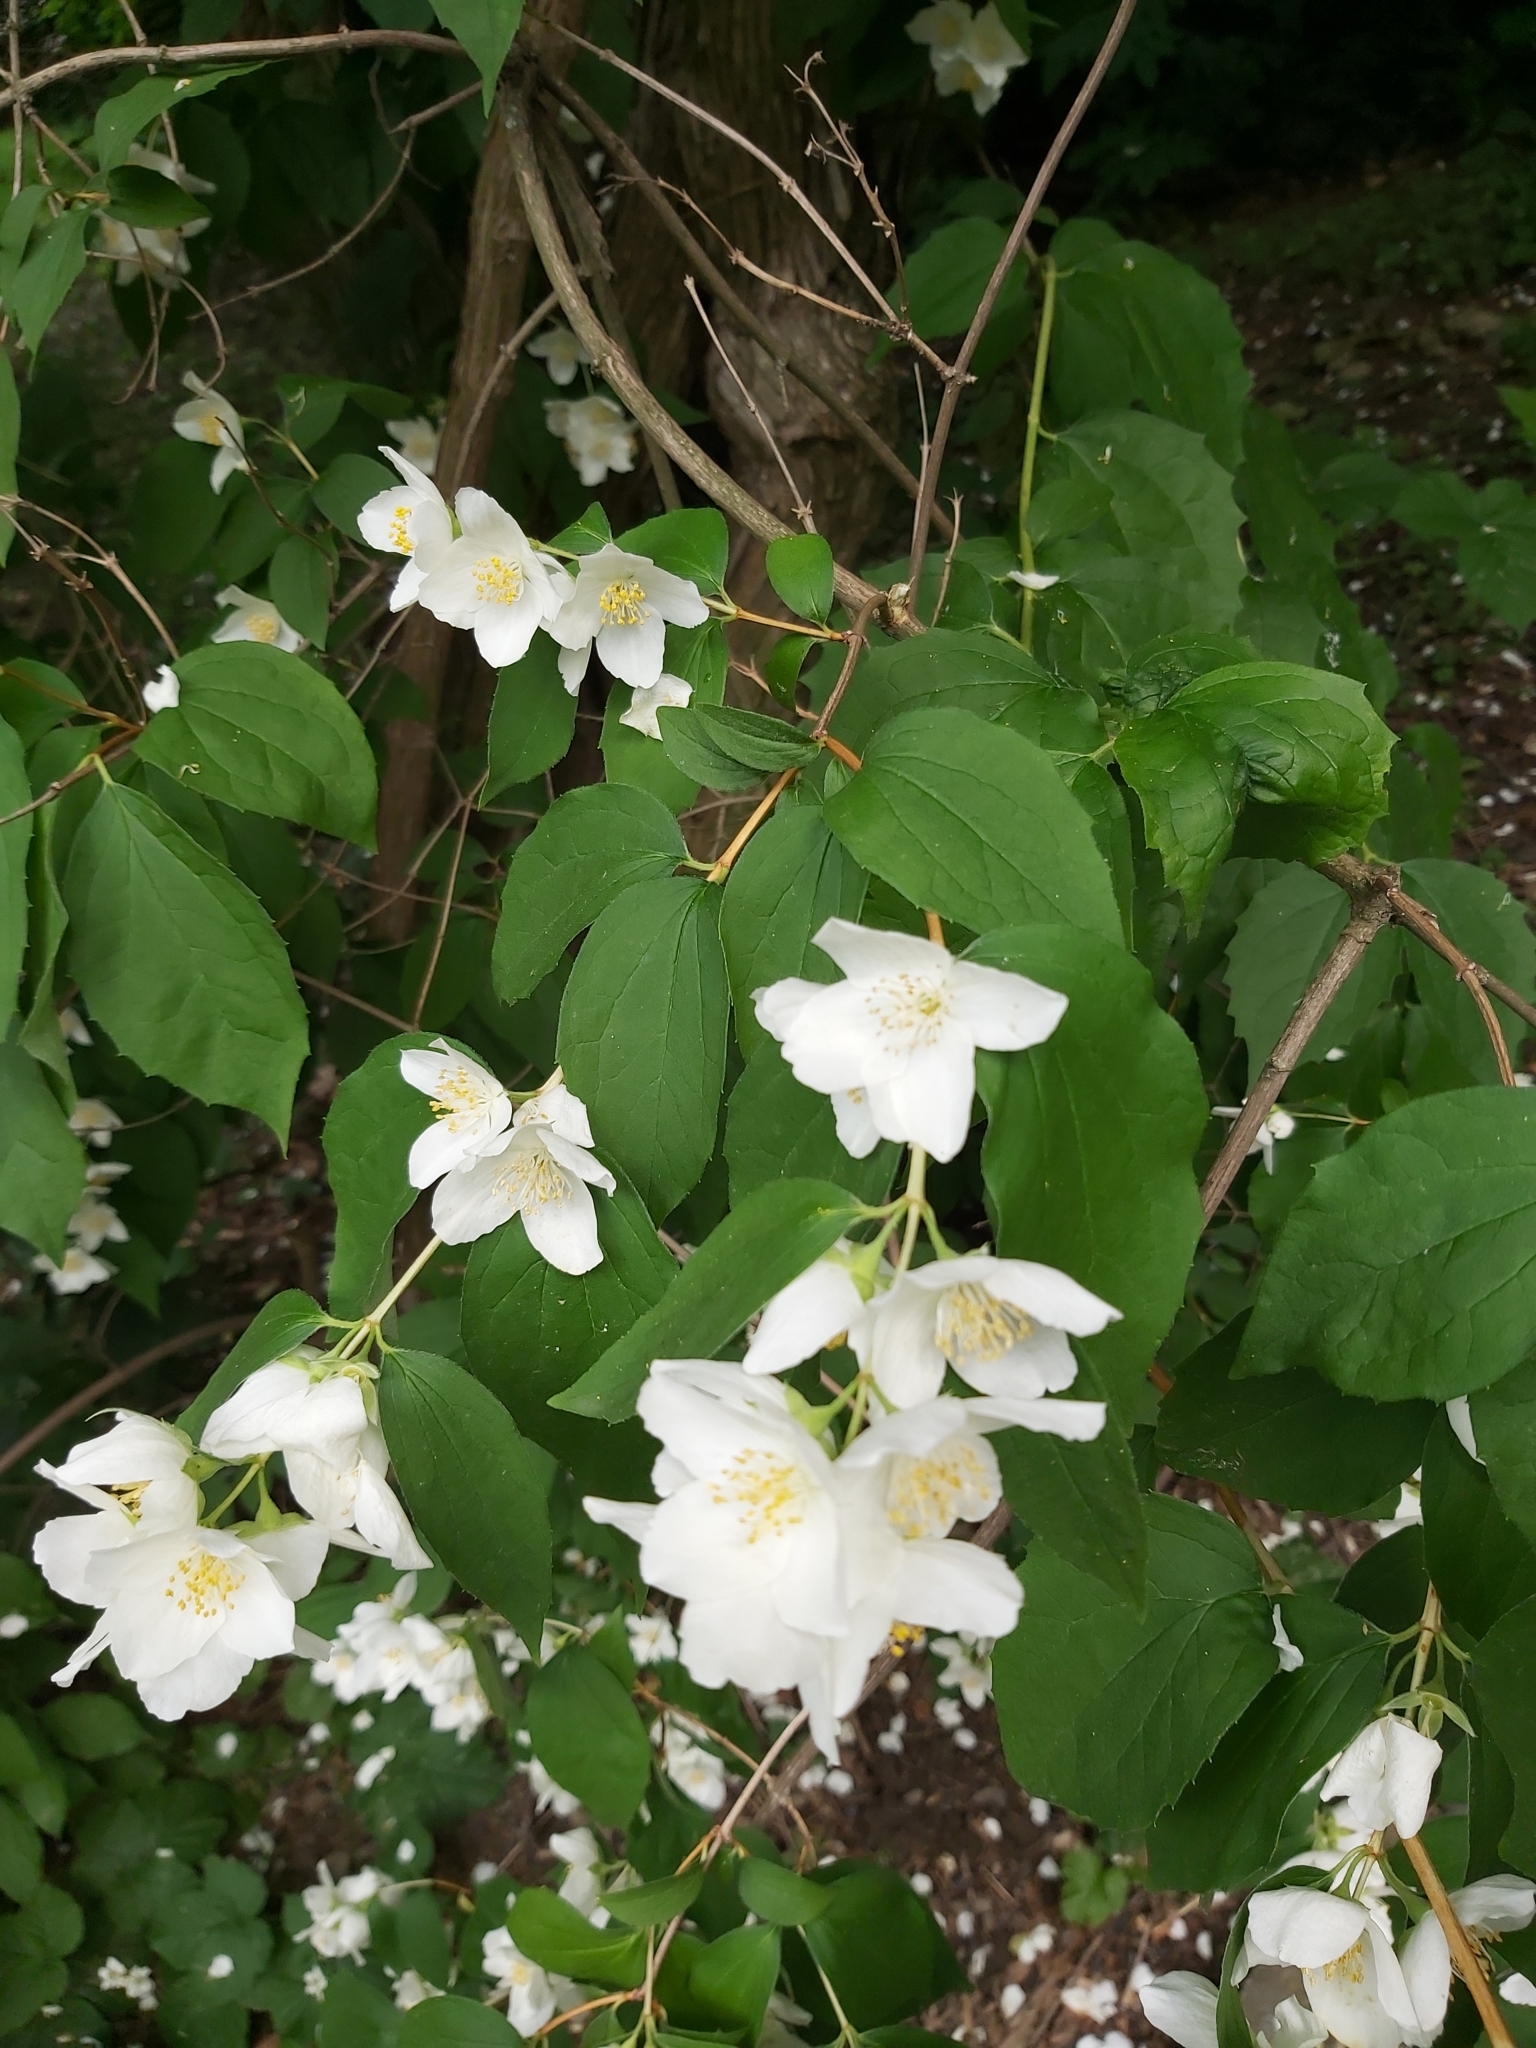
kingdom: Plantae
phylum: Tracheophyta
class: Magnoliopsida
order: Cornales
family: Hydrangeaceae
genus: Philadelphus
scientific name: Philadelphus coronarius
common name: Mock orange
